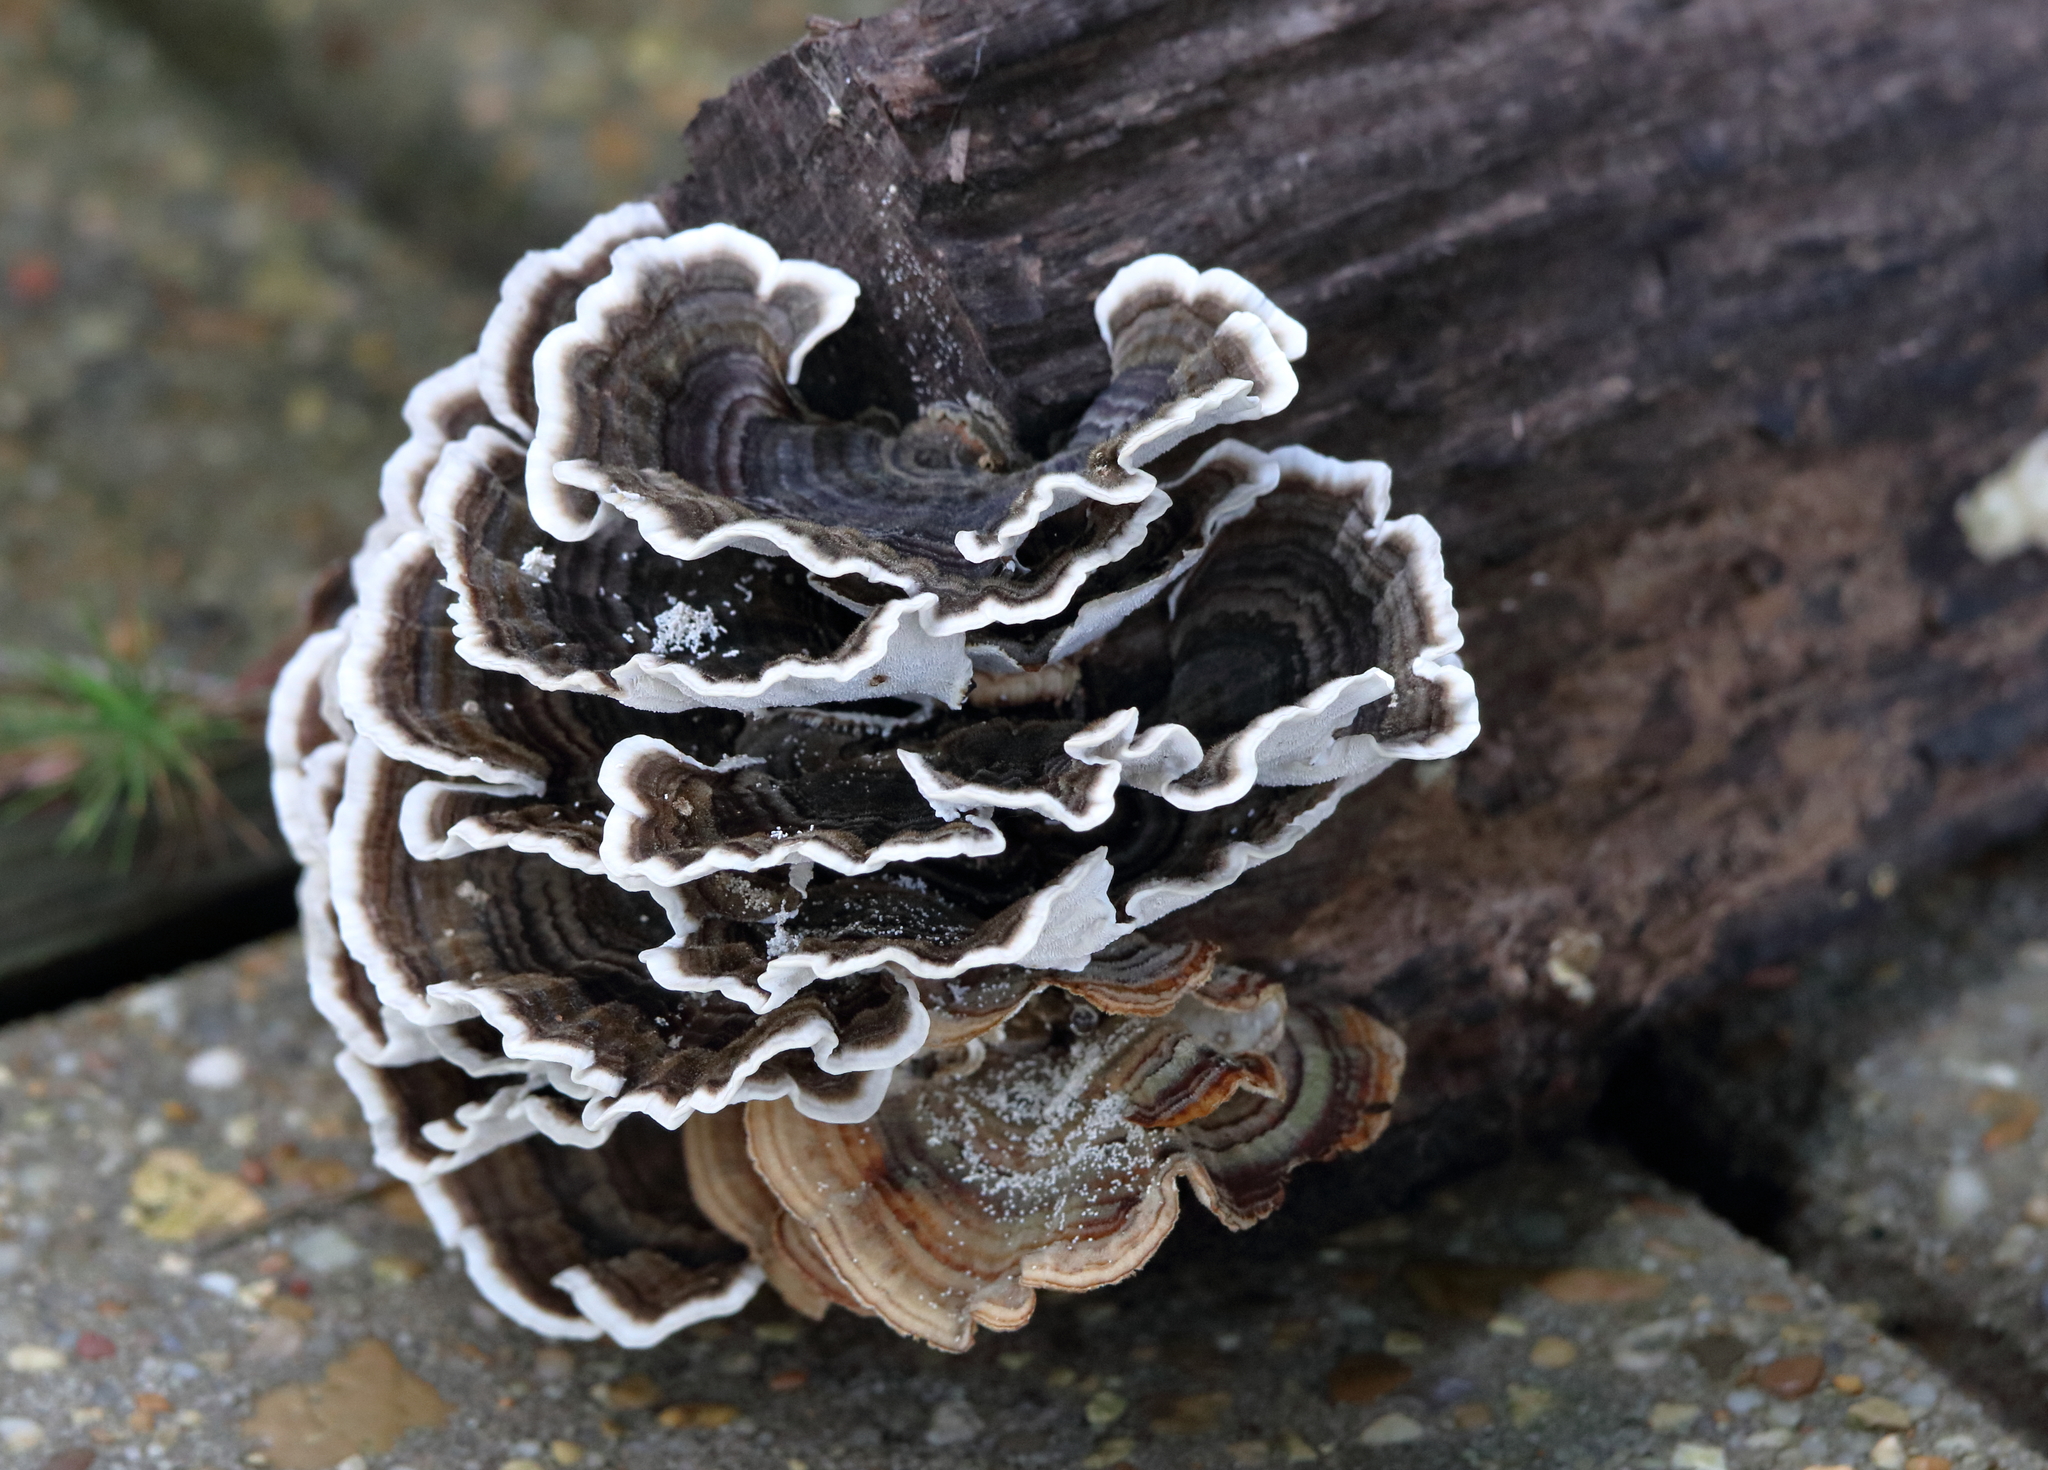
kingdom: Fungi
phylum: Basidiomycota
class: Agaricomycetes
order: Polyporales
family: Polyporaceae
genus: Trametes
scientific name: Trametes versicolor
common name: Turkeytail
